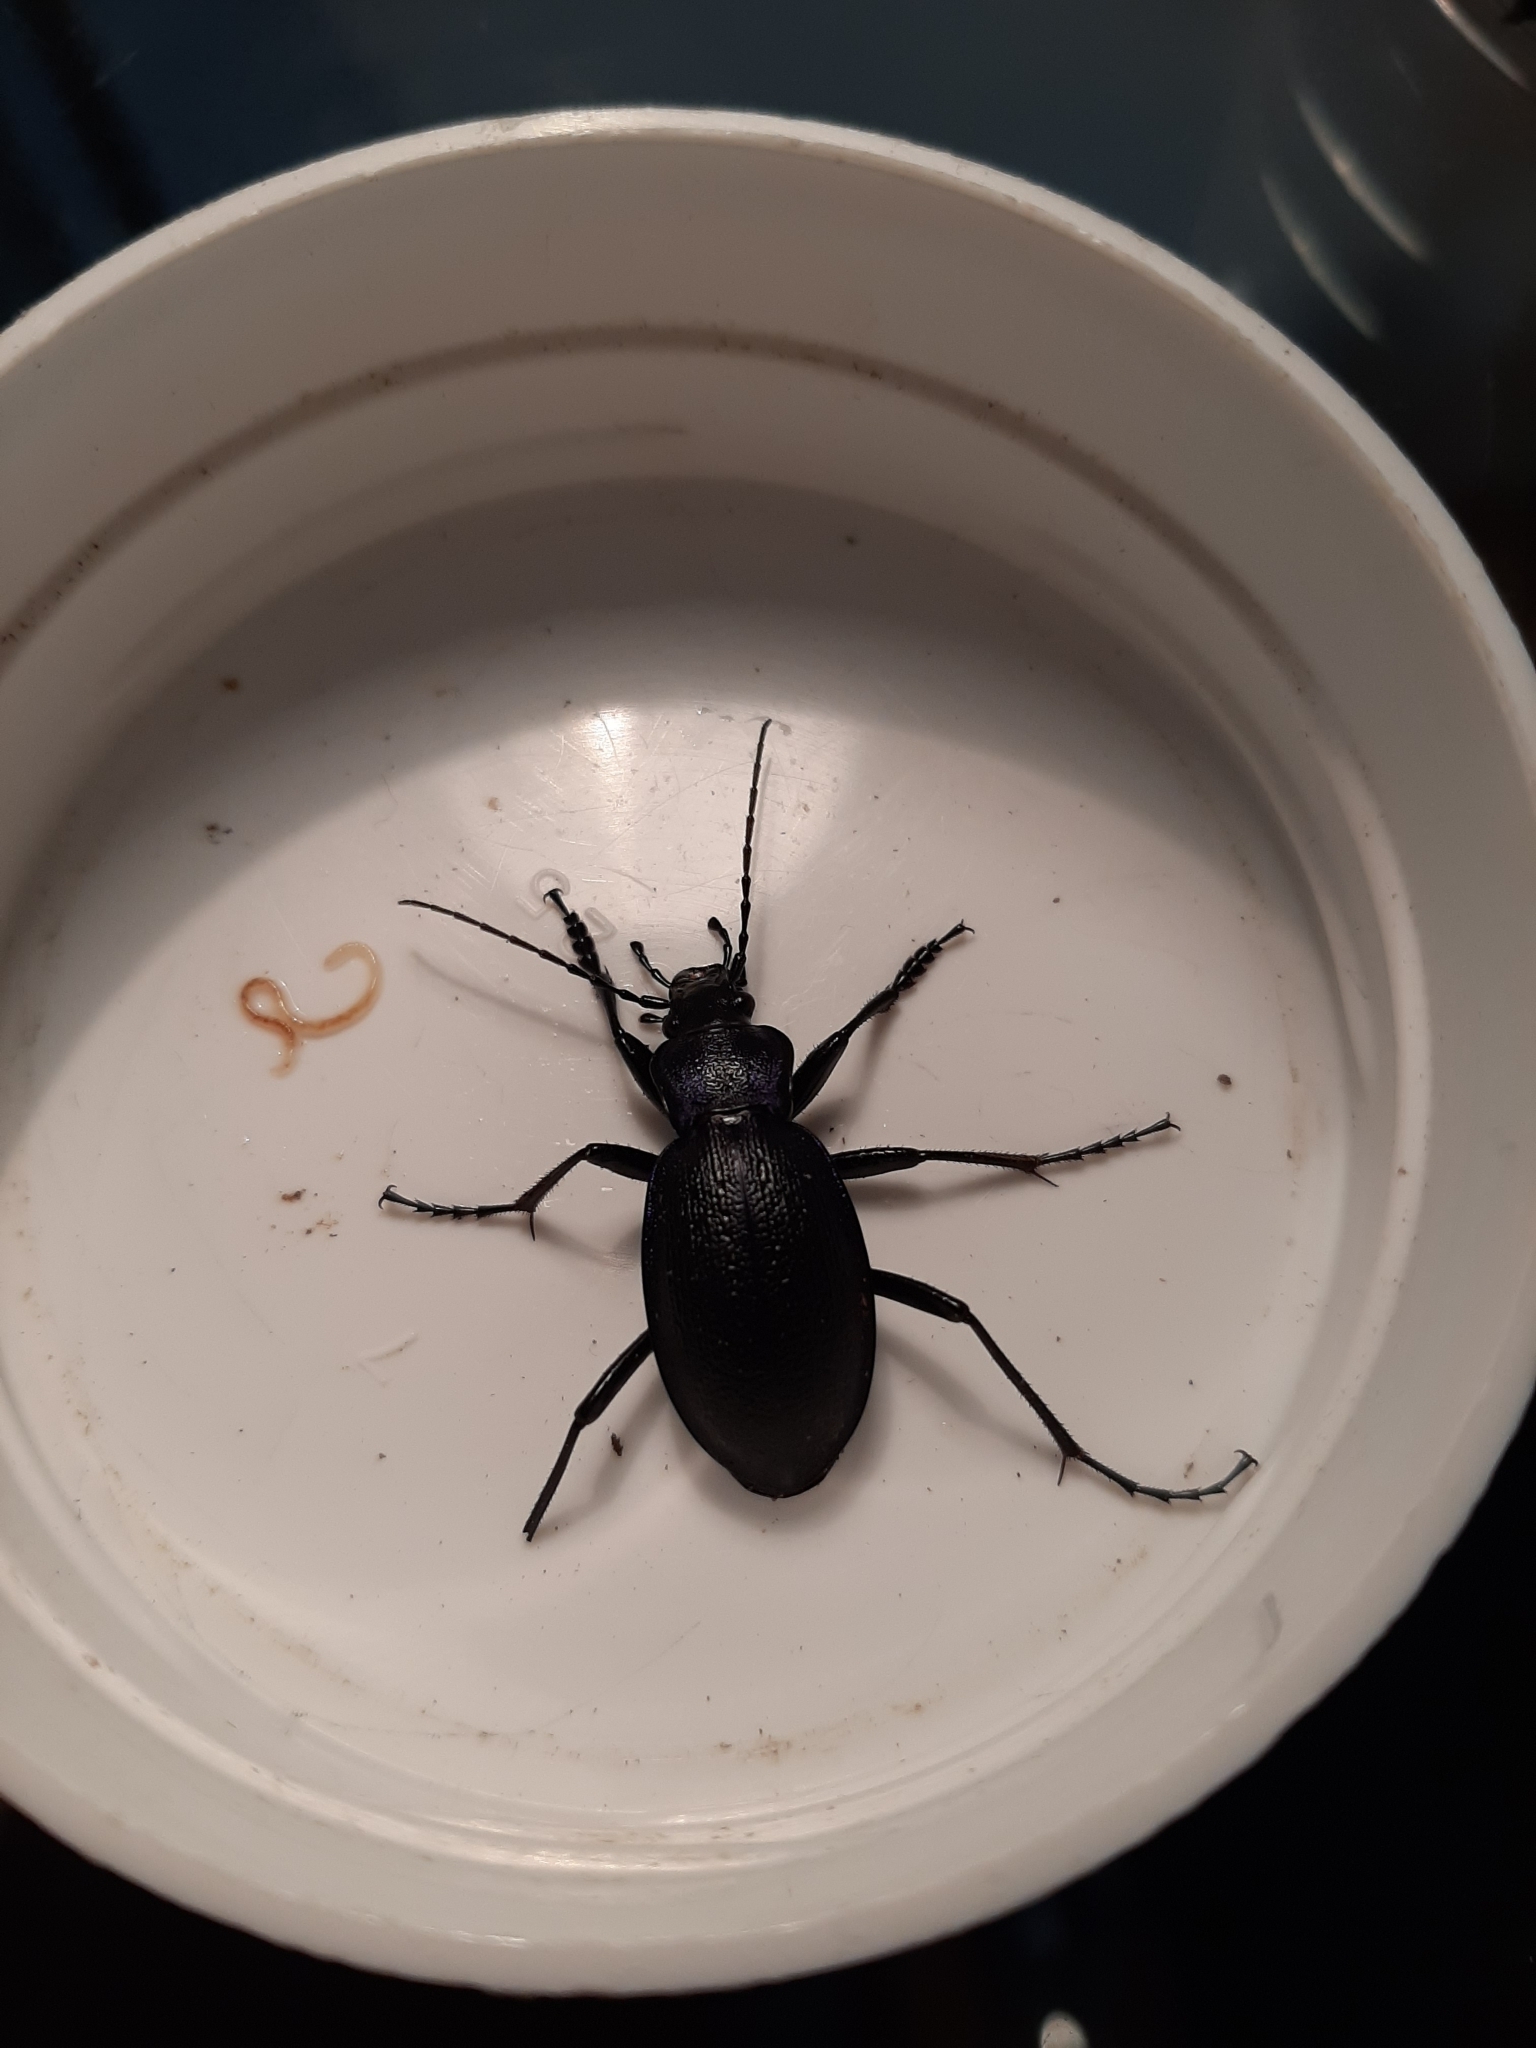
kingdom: Animalia
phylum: Arthropoda
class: Insecta
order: Coleoptera
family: Carabidae
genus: Carabus
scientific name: Carabus problematicus
